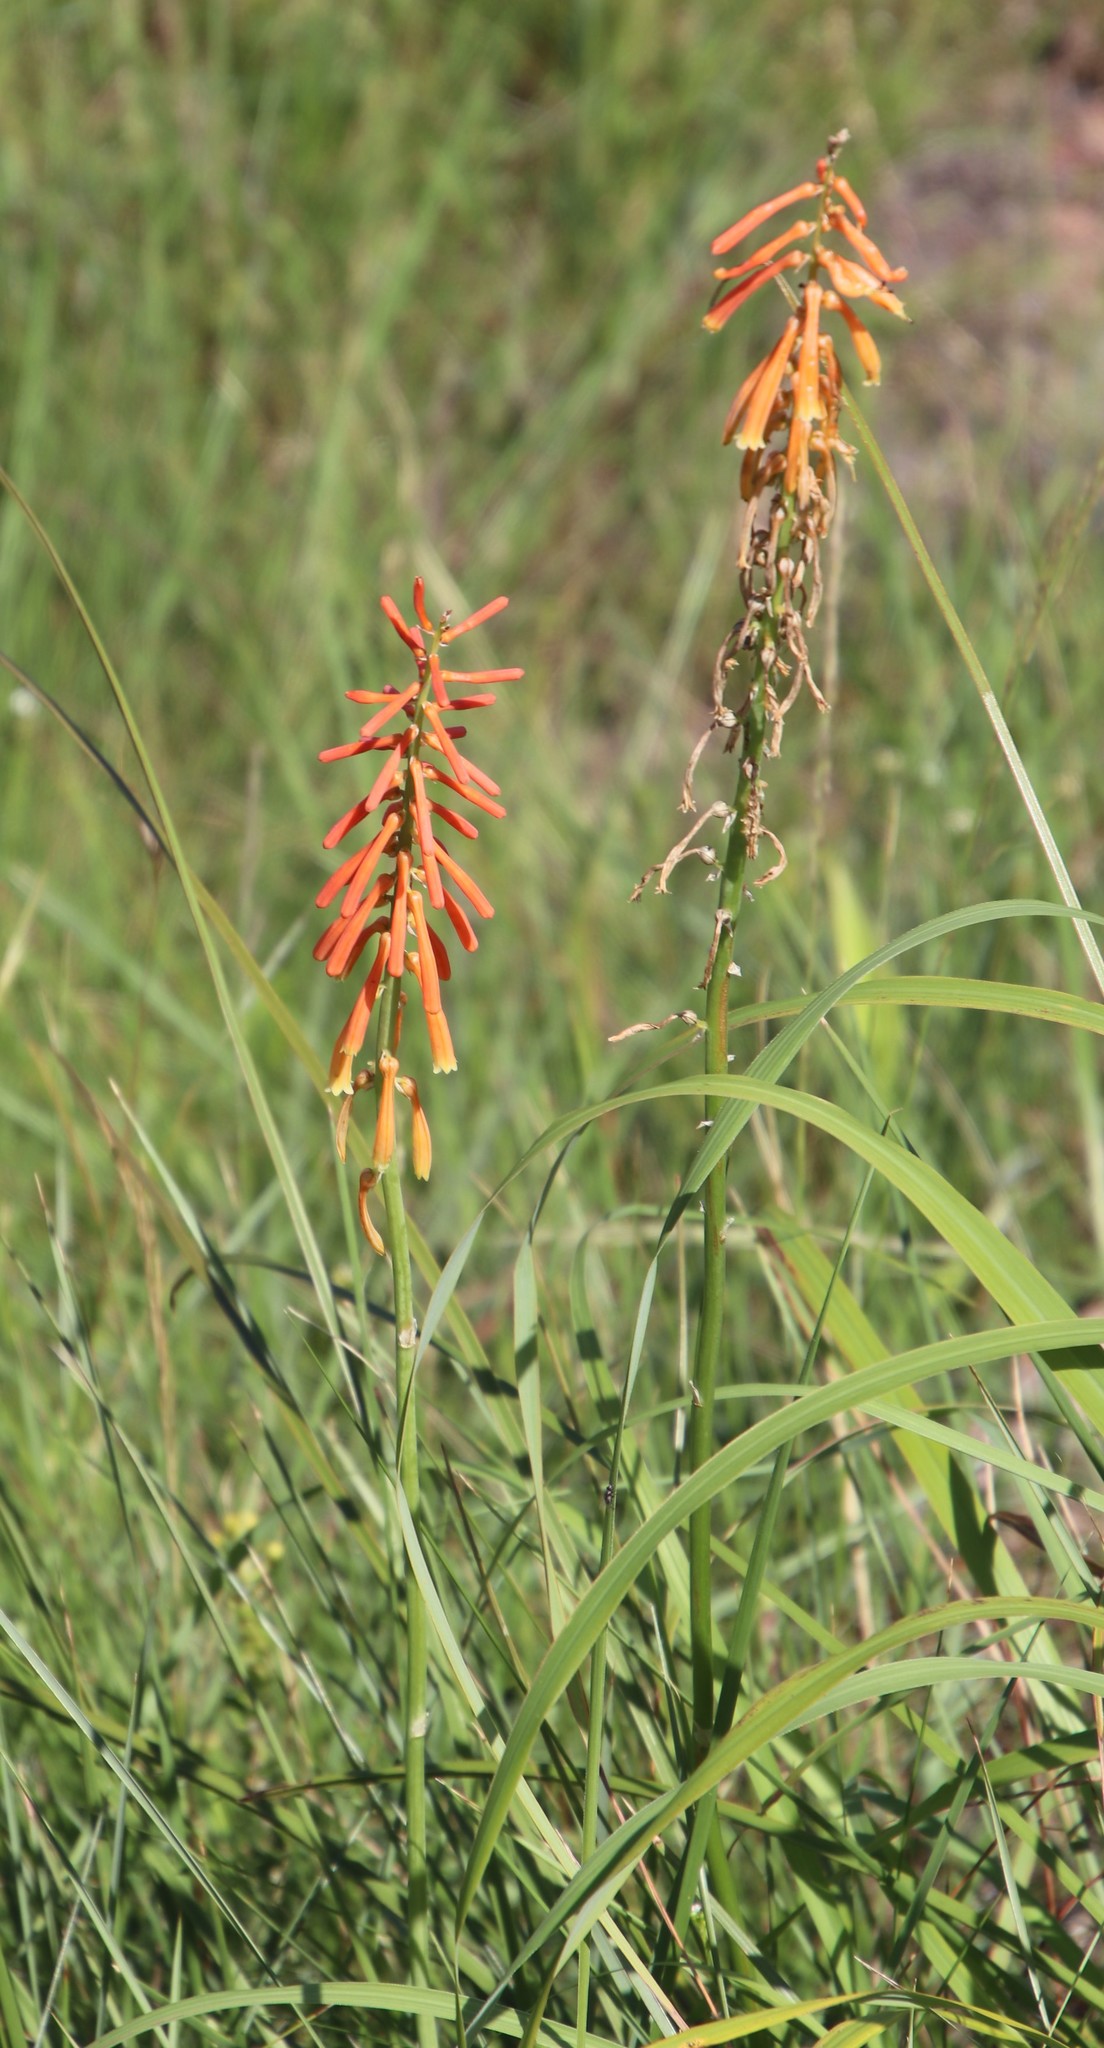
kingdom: Plantae
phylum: Tracheophyta
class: Liliopsida
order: Asparagales
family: Asphodelaceae
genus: Kniphofia
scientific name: Kniphofia laxiflora
